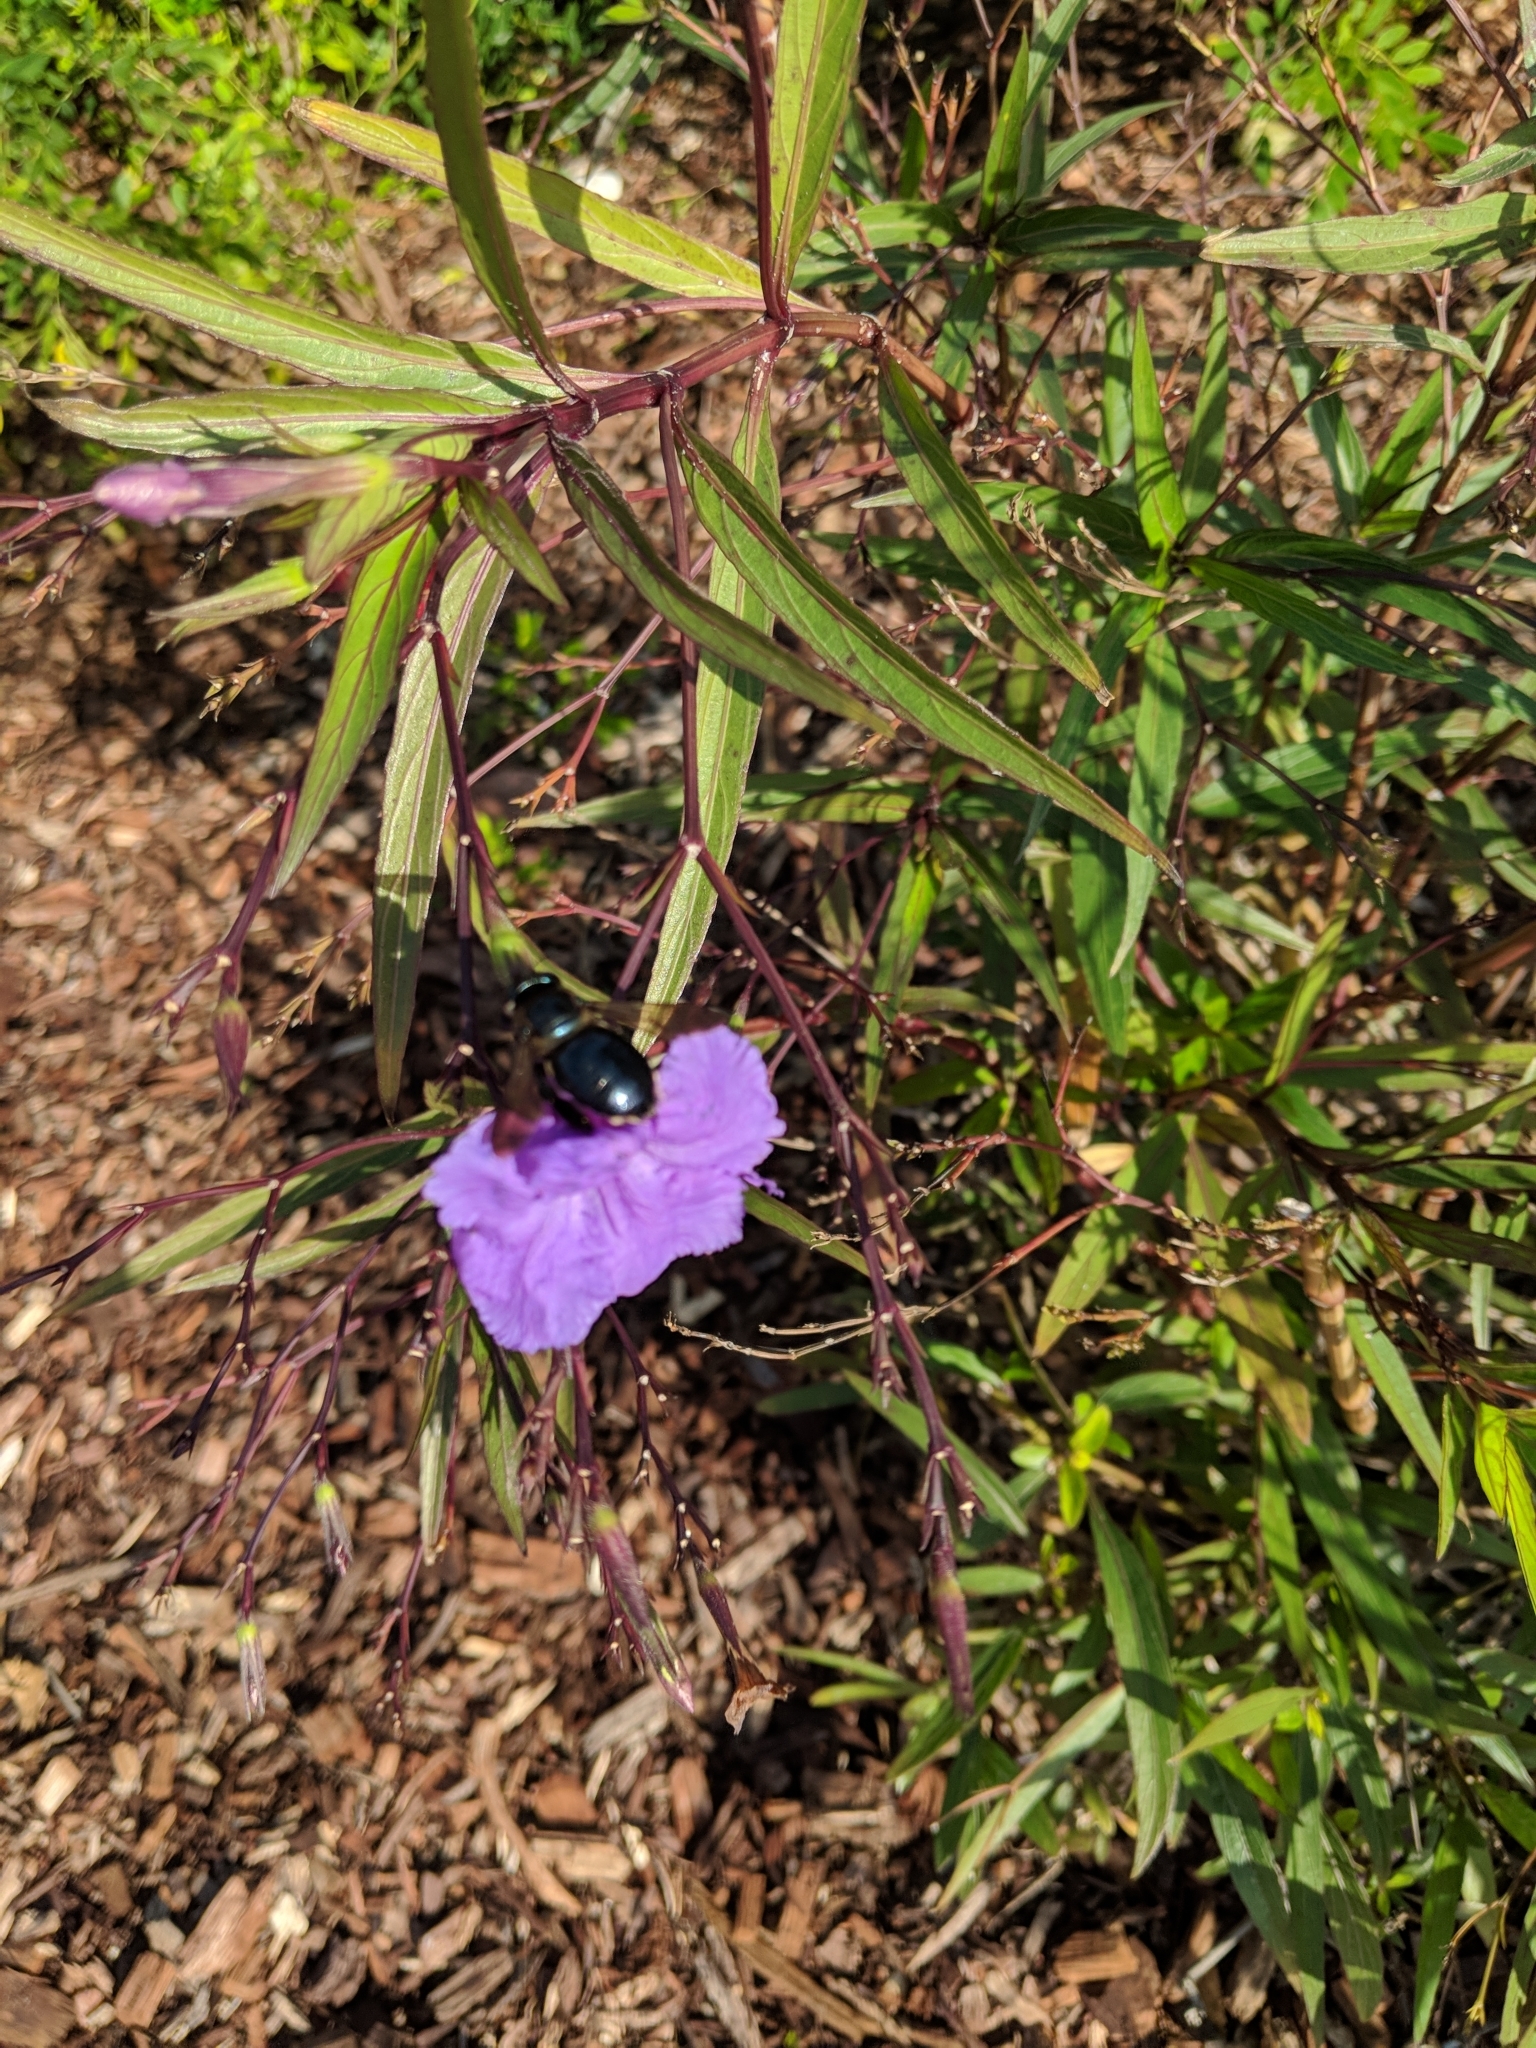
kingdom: Animalia
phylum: Arthropoda
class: Insecta
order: Hymenoptera
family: Apidae
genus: Xylocopa
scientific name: Xylocopa micans
